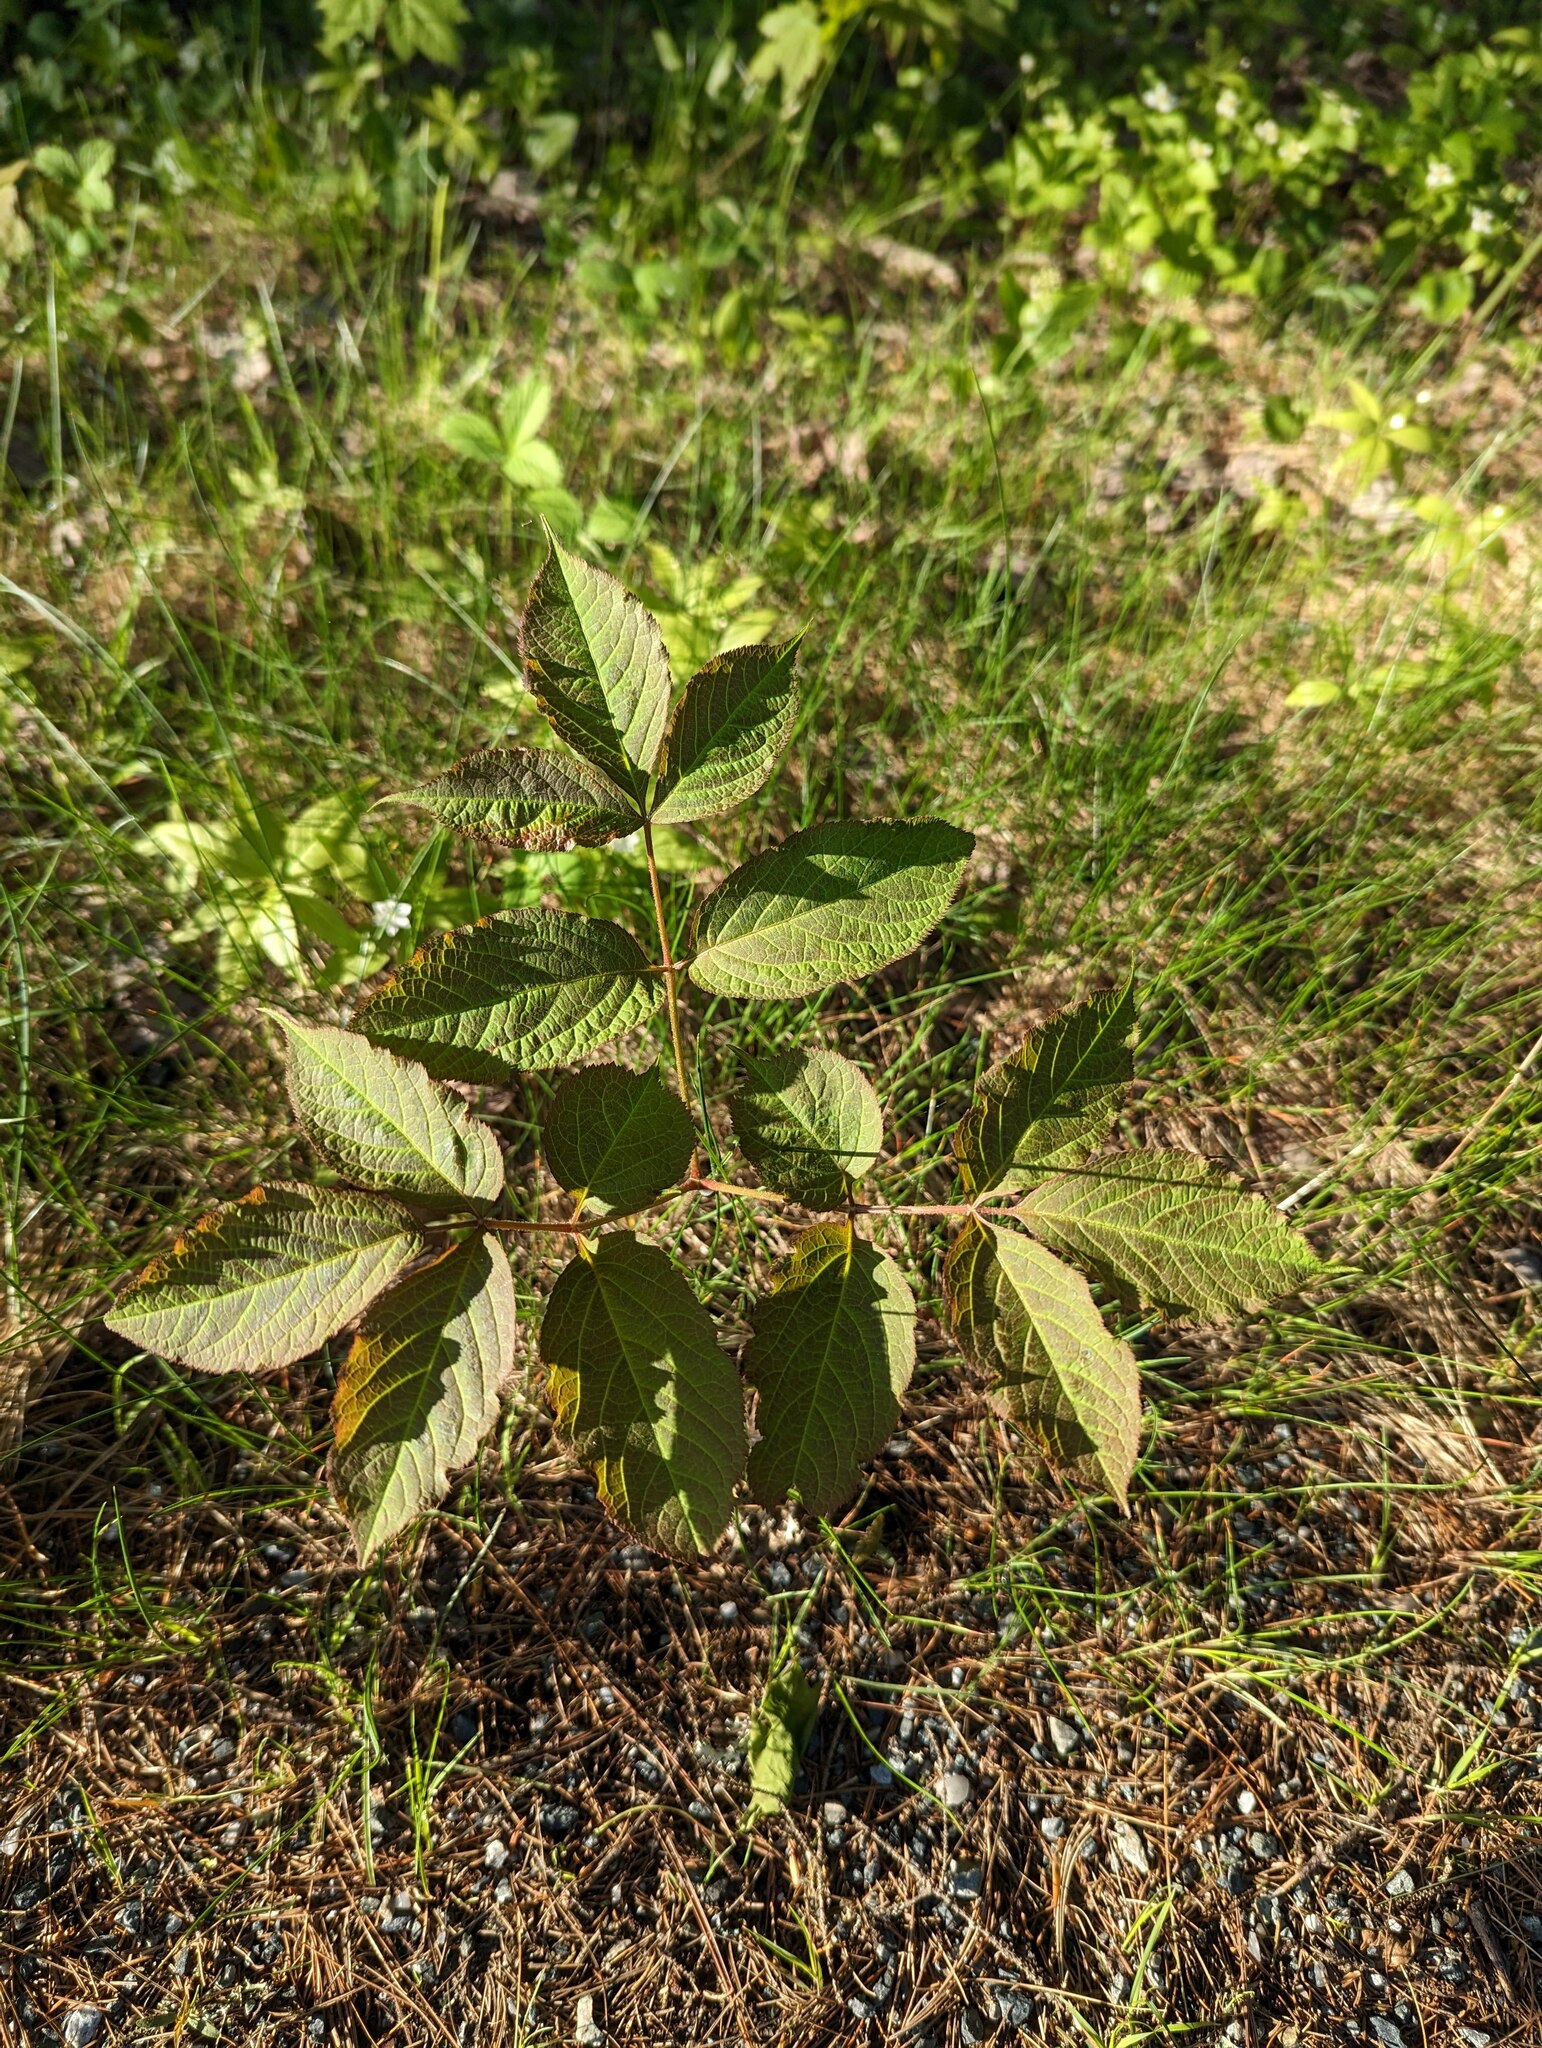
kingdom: Plantae
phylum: Tracheophyta
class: Magnoliopsida
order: Apiales
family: Araliaceae
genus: Aralia
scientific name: Aralia nudicaulis
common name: Wild sarsaparilla
